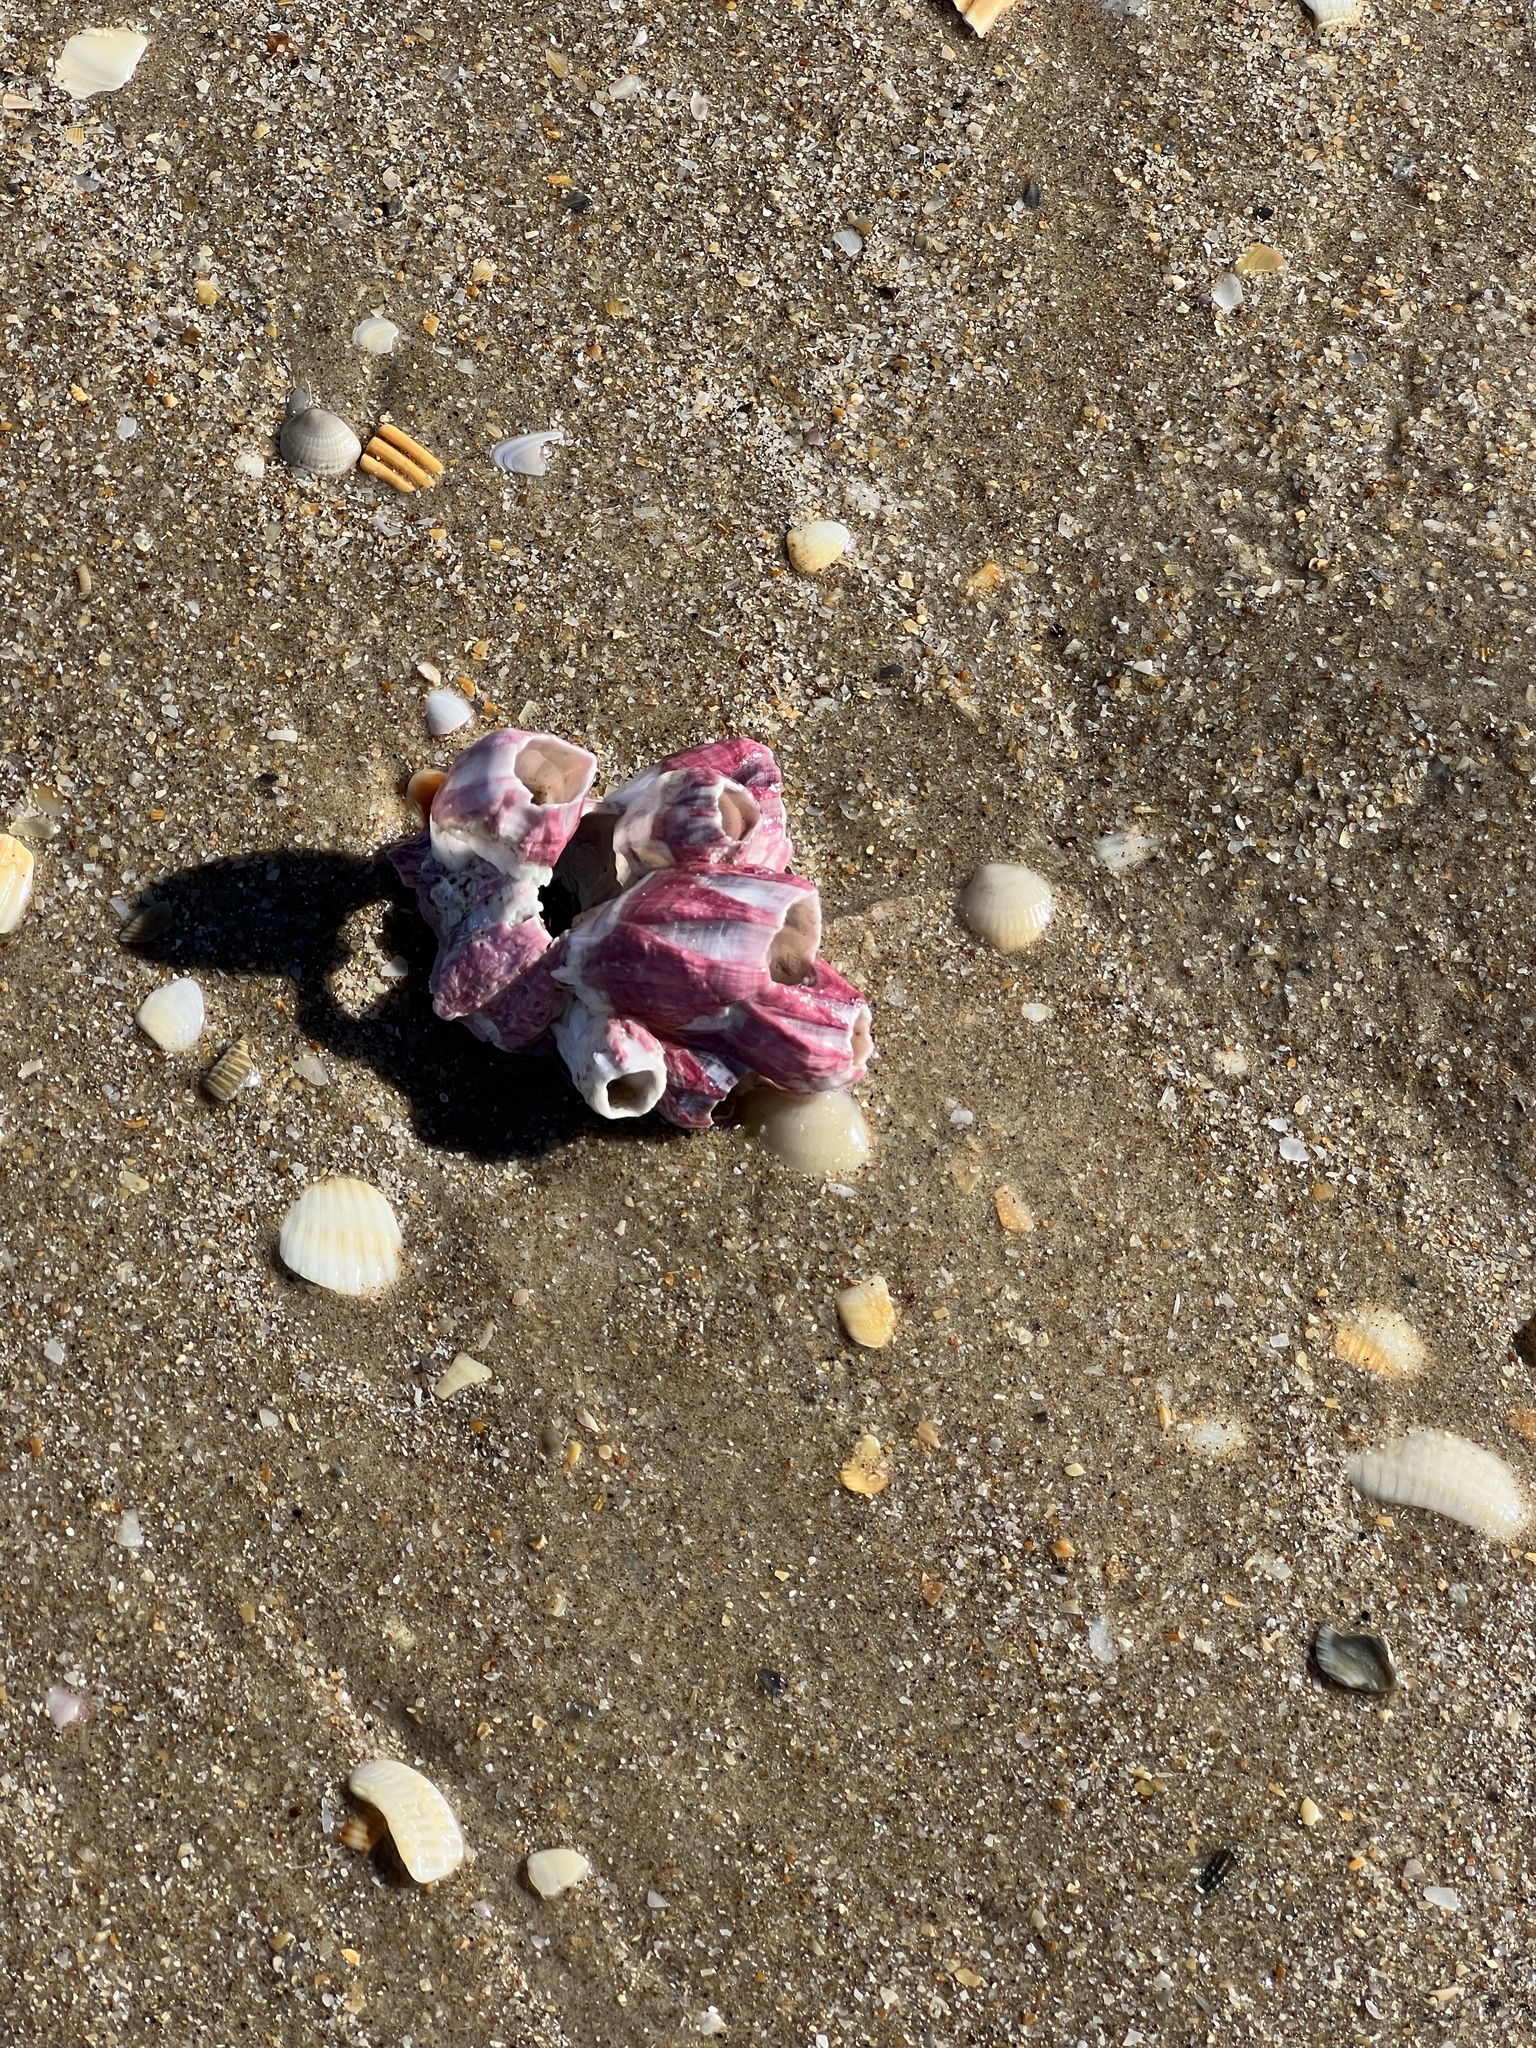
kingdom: Animalia
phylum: Arthropoda
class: Maxillopoda
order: Sessilia
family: Balanidae
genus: Megabalanus
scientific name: Megabalanus tintinnabulum
